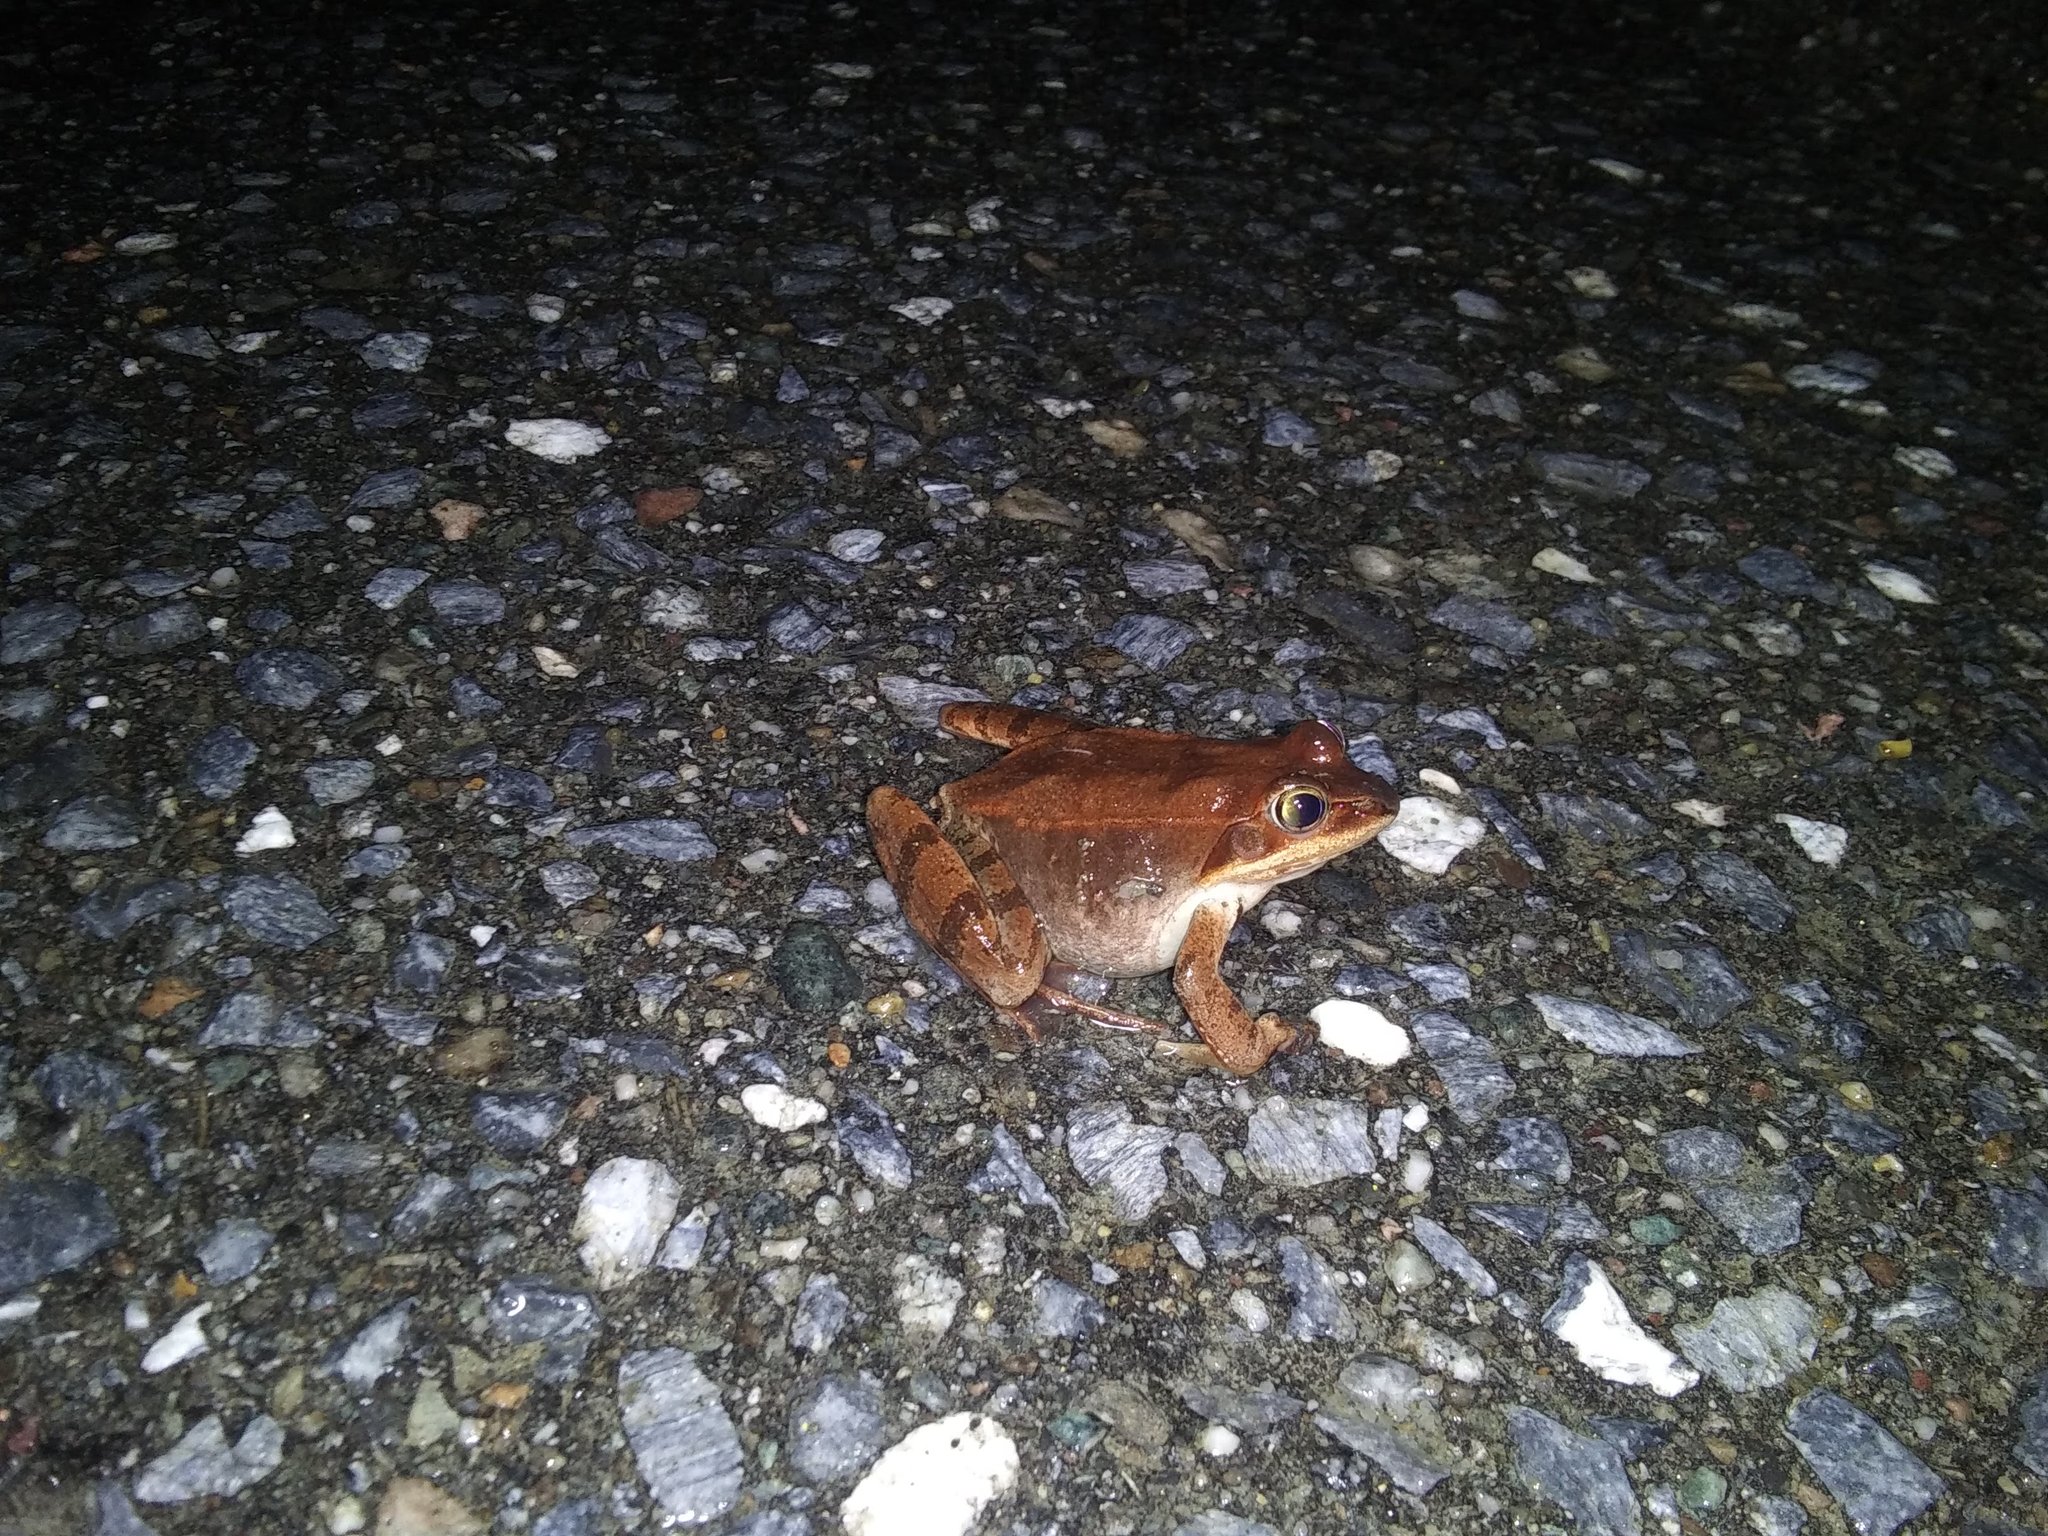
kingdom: Animalia
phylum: Chordata
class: Amphibia
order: Anura
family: Ranidae
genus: Lithobates
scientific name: Lithobates sylvaticus
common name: Wood frog
